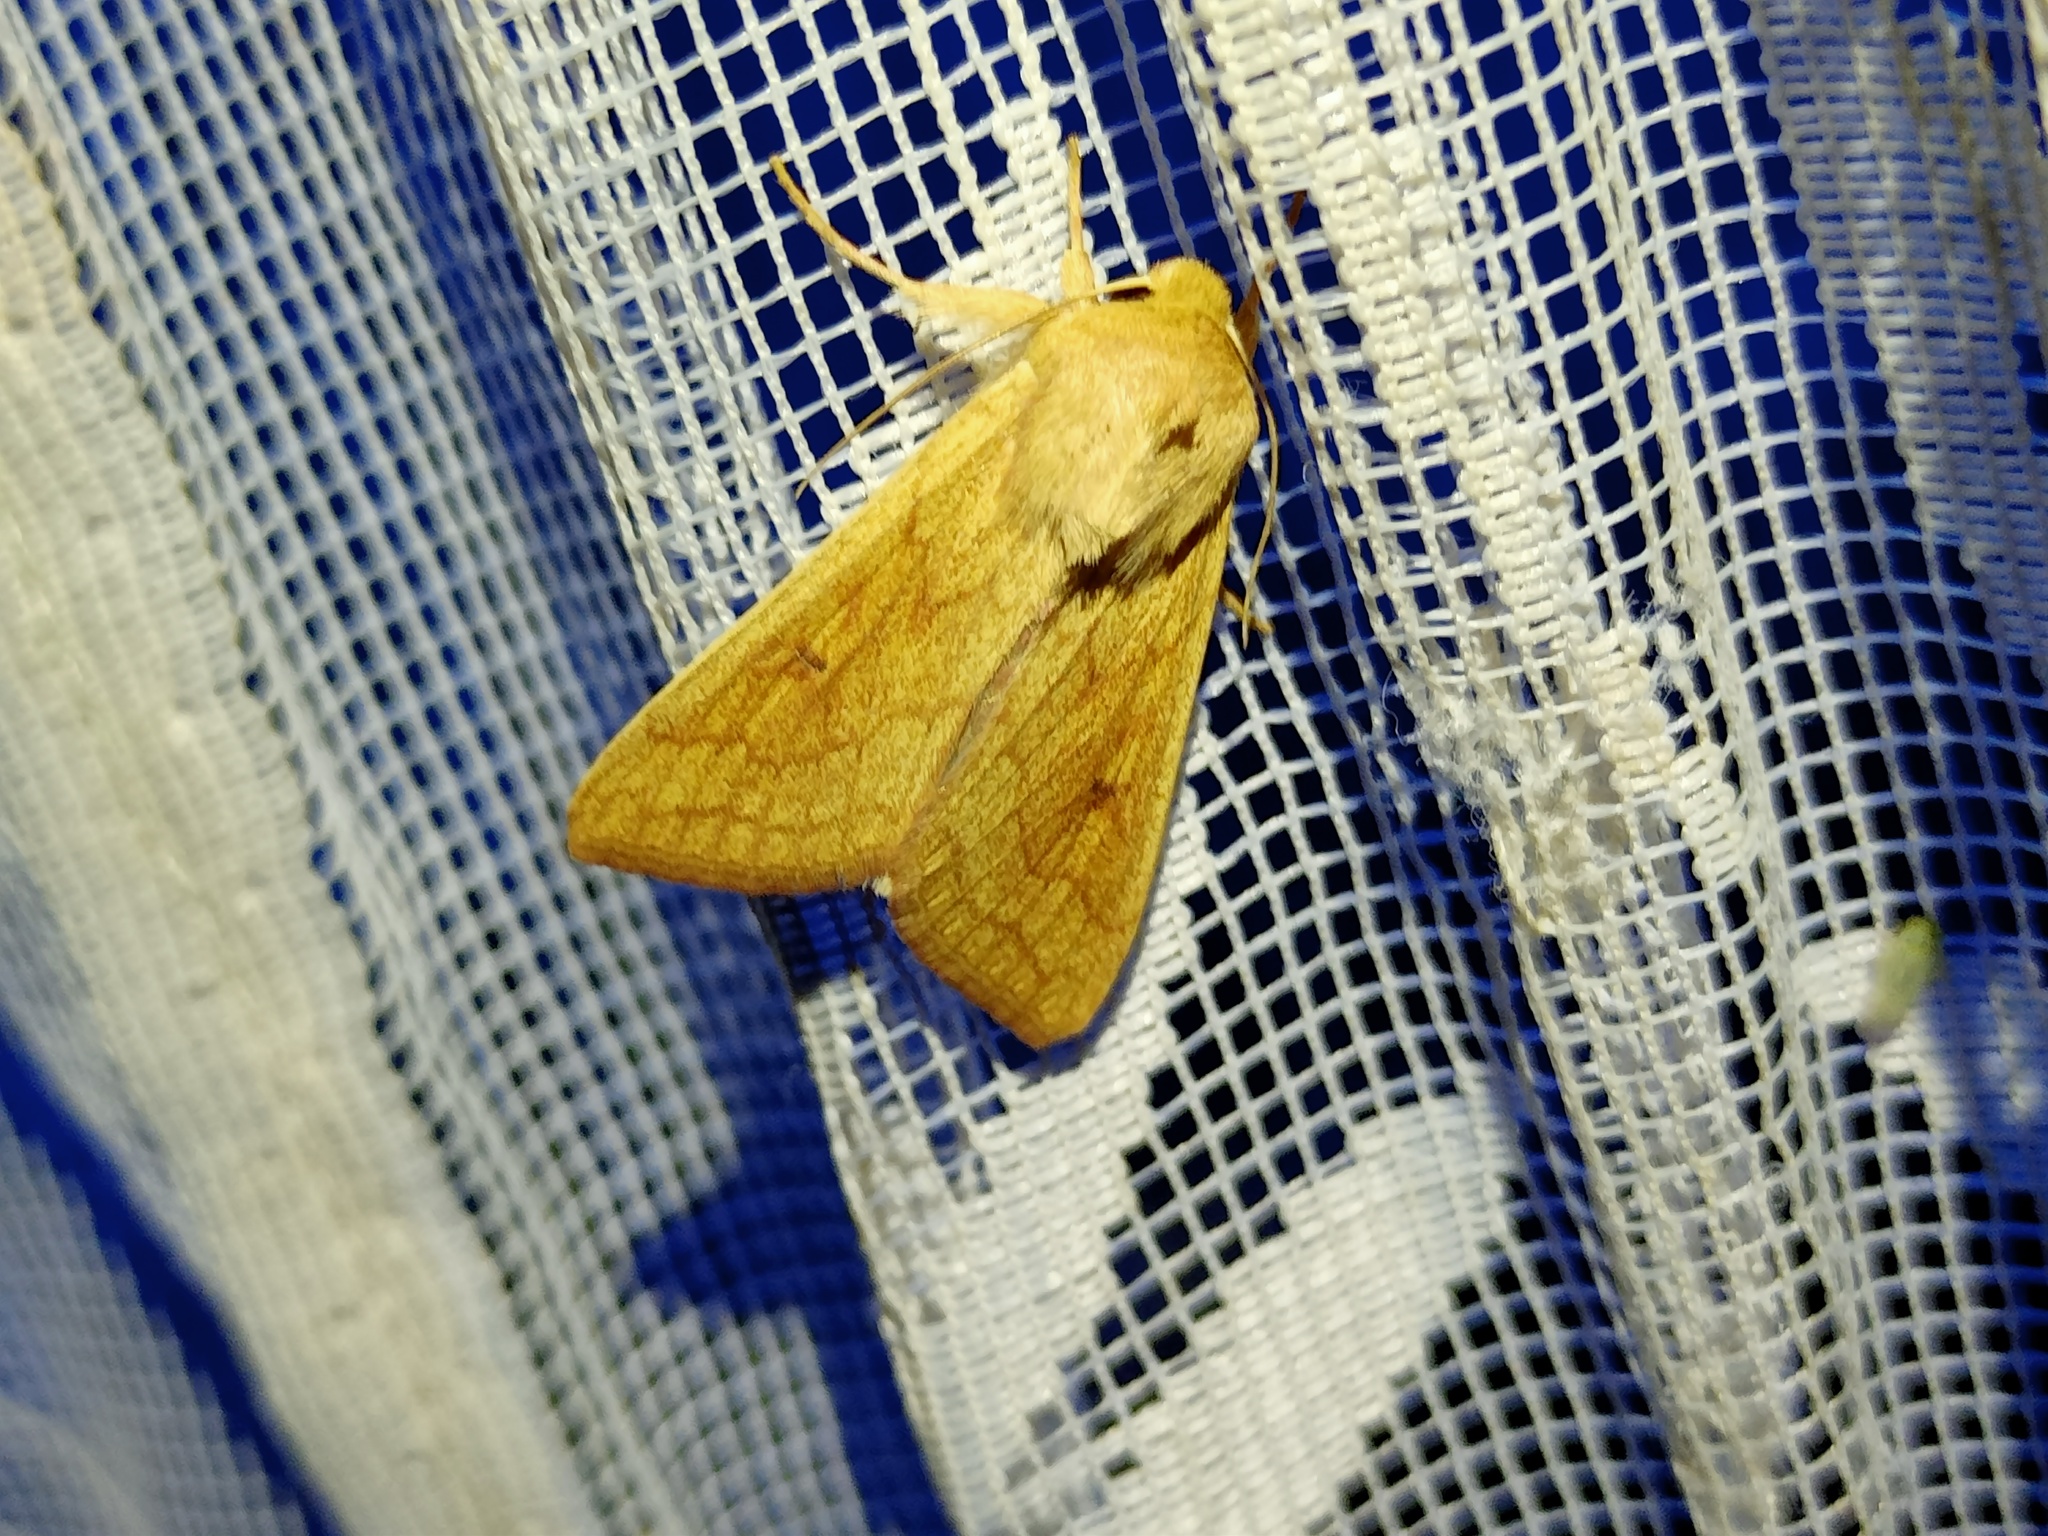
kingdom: Animalia
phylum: Arthropoda
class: Insecta
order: Lepidoptera
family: Noctuidae
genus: Mythimna
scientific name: Mythimna vitellina
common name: Delicate
